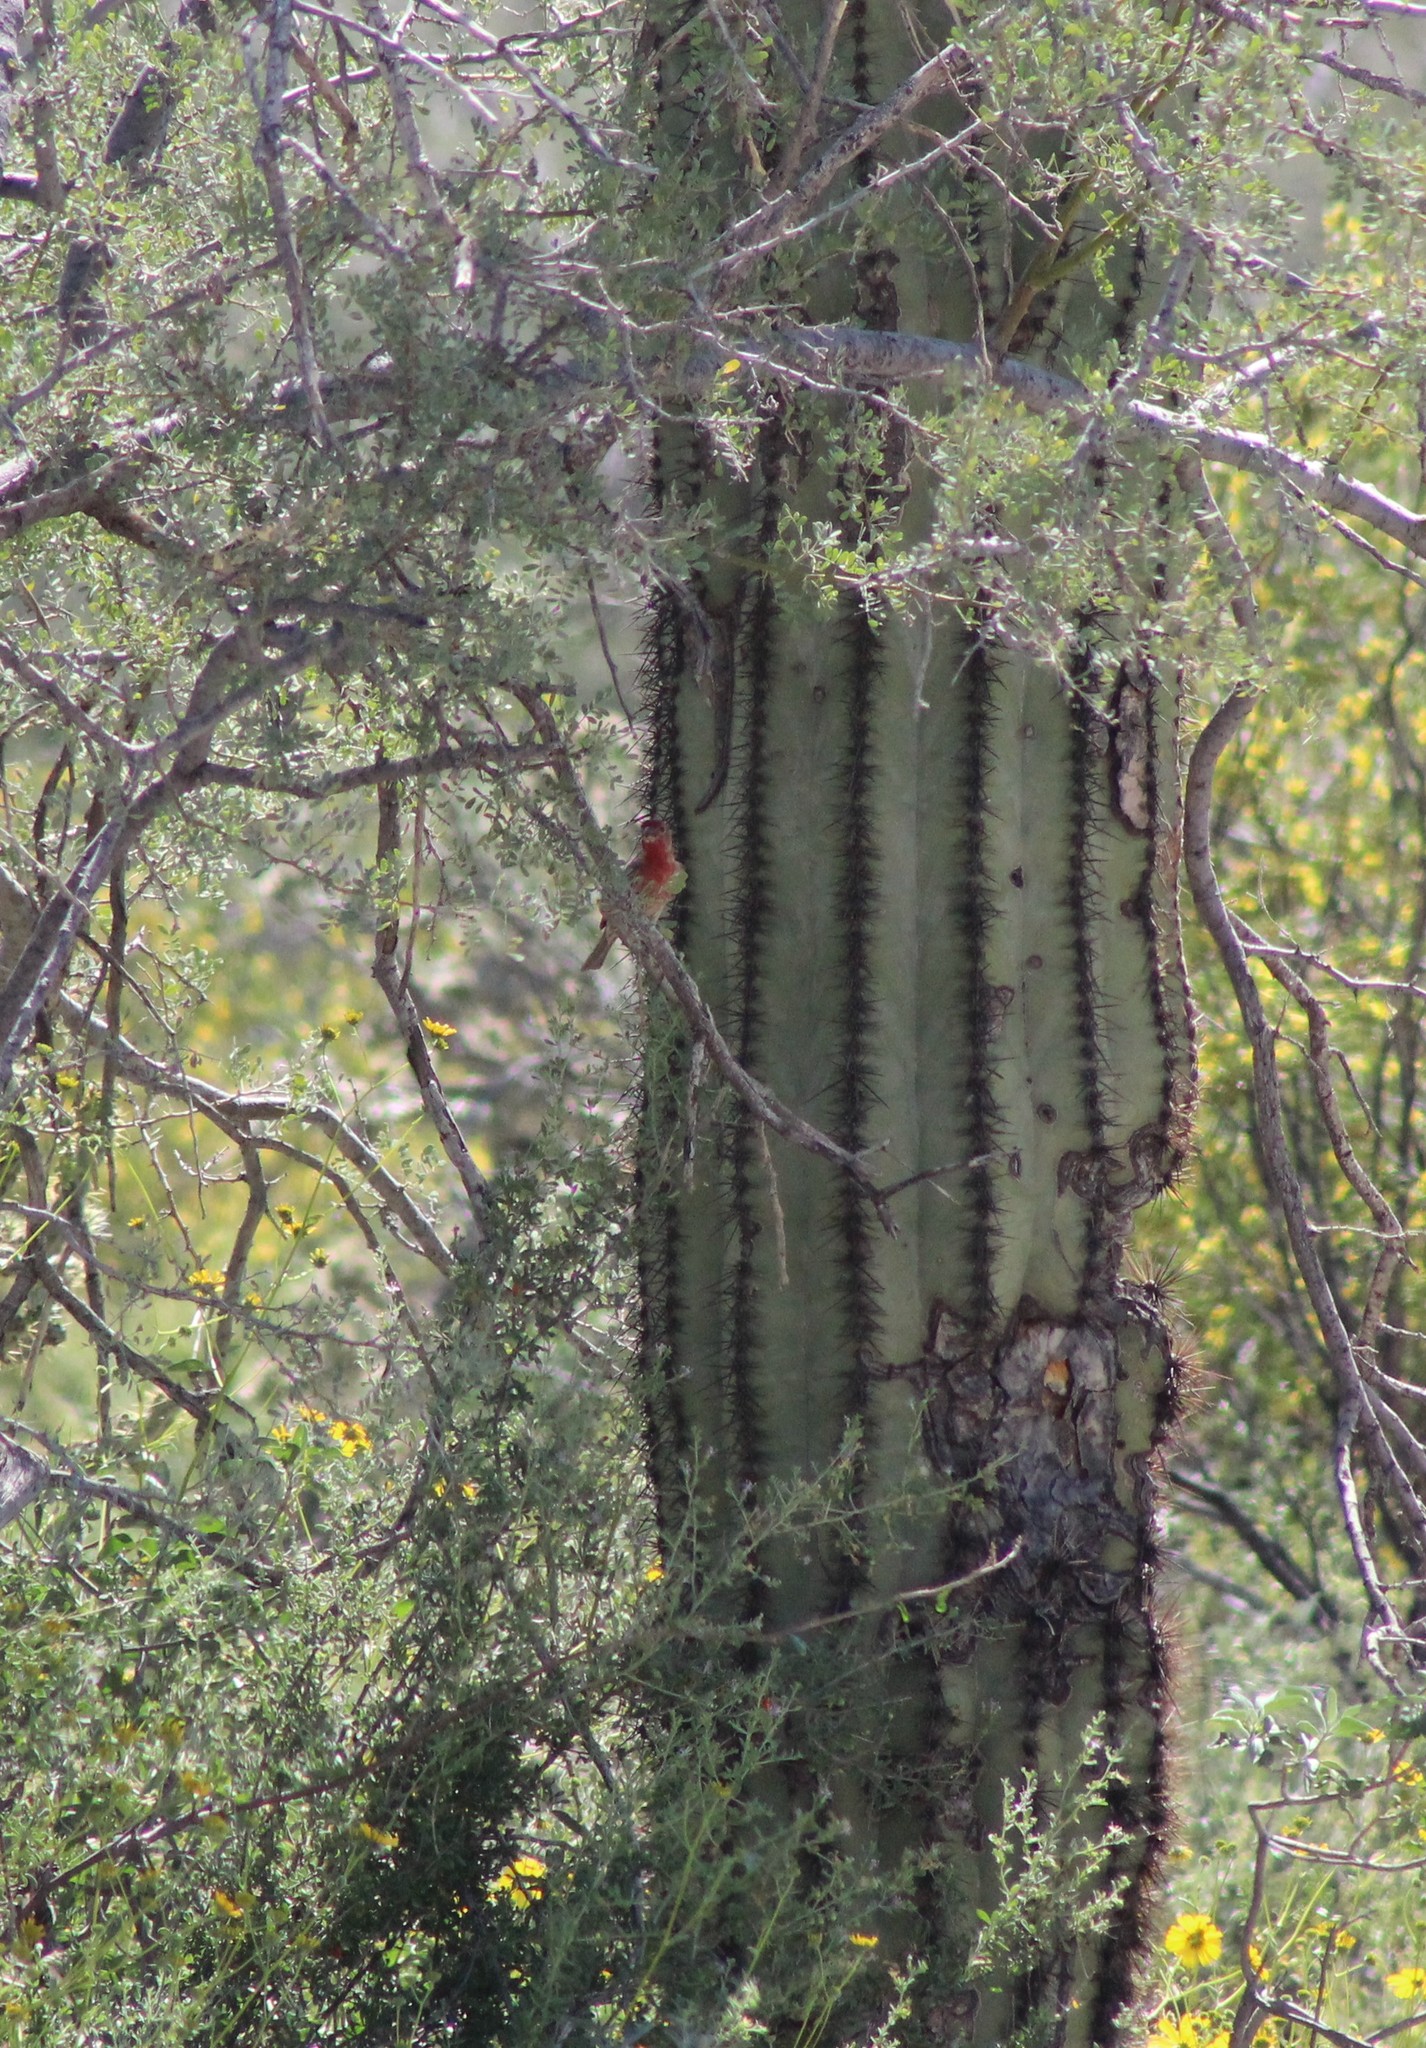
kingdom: Animalia
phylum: Chordata
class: Aves
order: Passeriformes
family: Fringillidae
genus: Haemorhous
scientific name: Haemorhous mexicanus
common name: House finch
